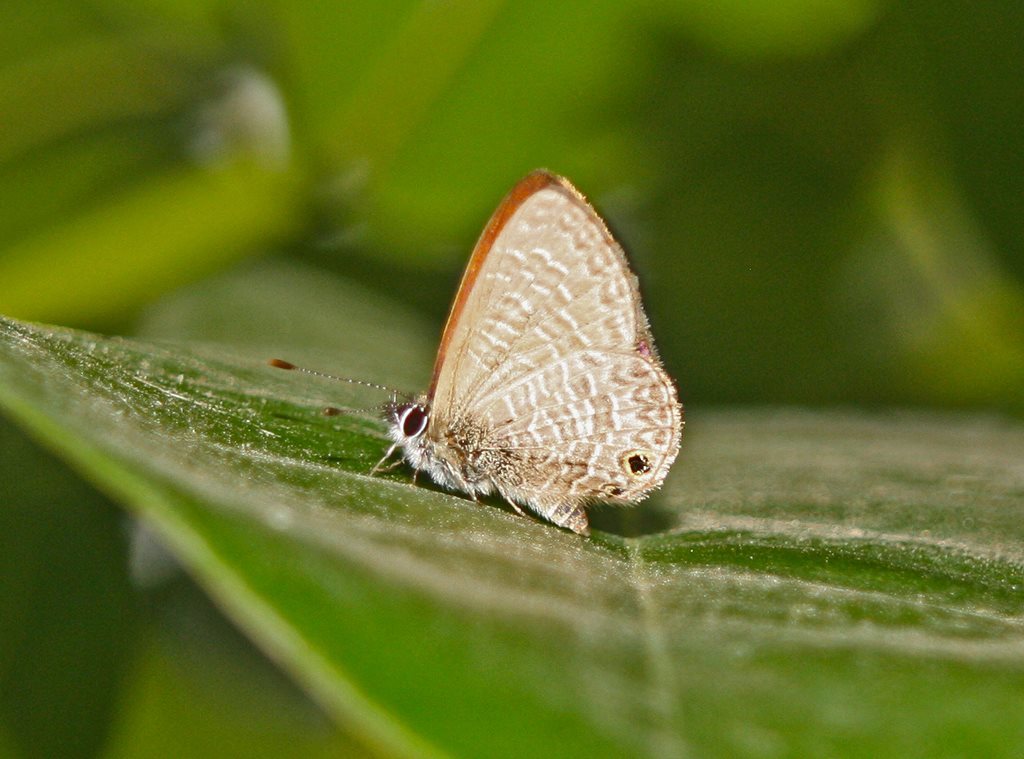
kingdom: Animalia
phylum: Arthropoda
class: Insecta
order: Lepidoptera
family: Lycaenidae
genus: Prosotas
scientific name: Prosotas dubiosa
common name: Tailless lineblue
